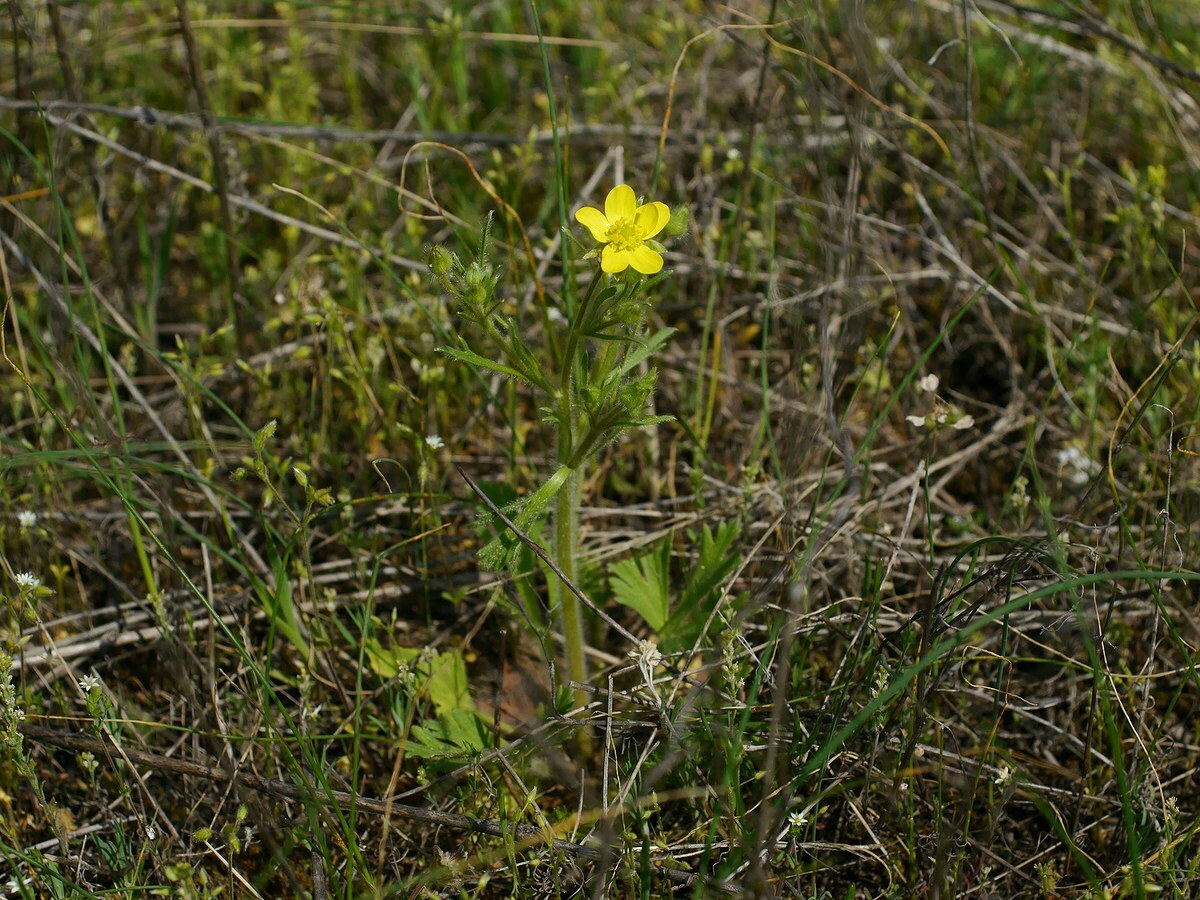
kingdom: Plantae
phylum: Tracheophyta
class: Magnoliopsida
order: Ranunculales
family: Ranunculaceae
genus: Ranunculus
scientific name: Ranunculus oxyspermus
